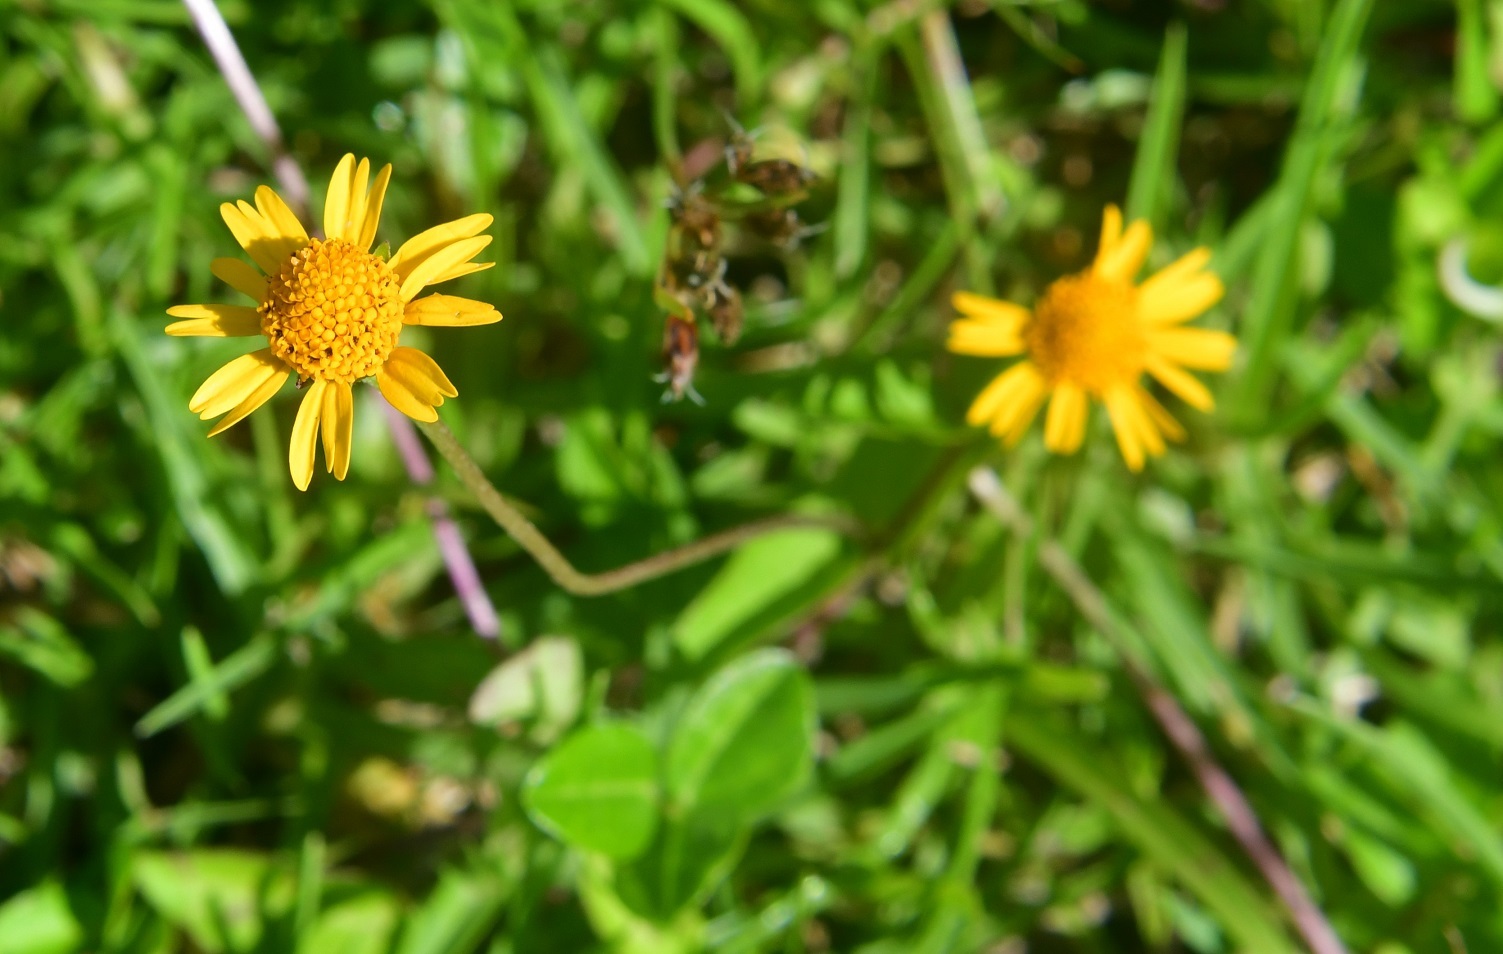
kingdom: Plantae
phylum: Tracheophyta
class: Magnoliopsida
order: Asterales
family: Asteraceae
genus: Acmella
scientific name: Acmella repens
